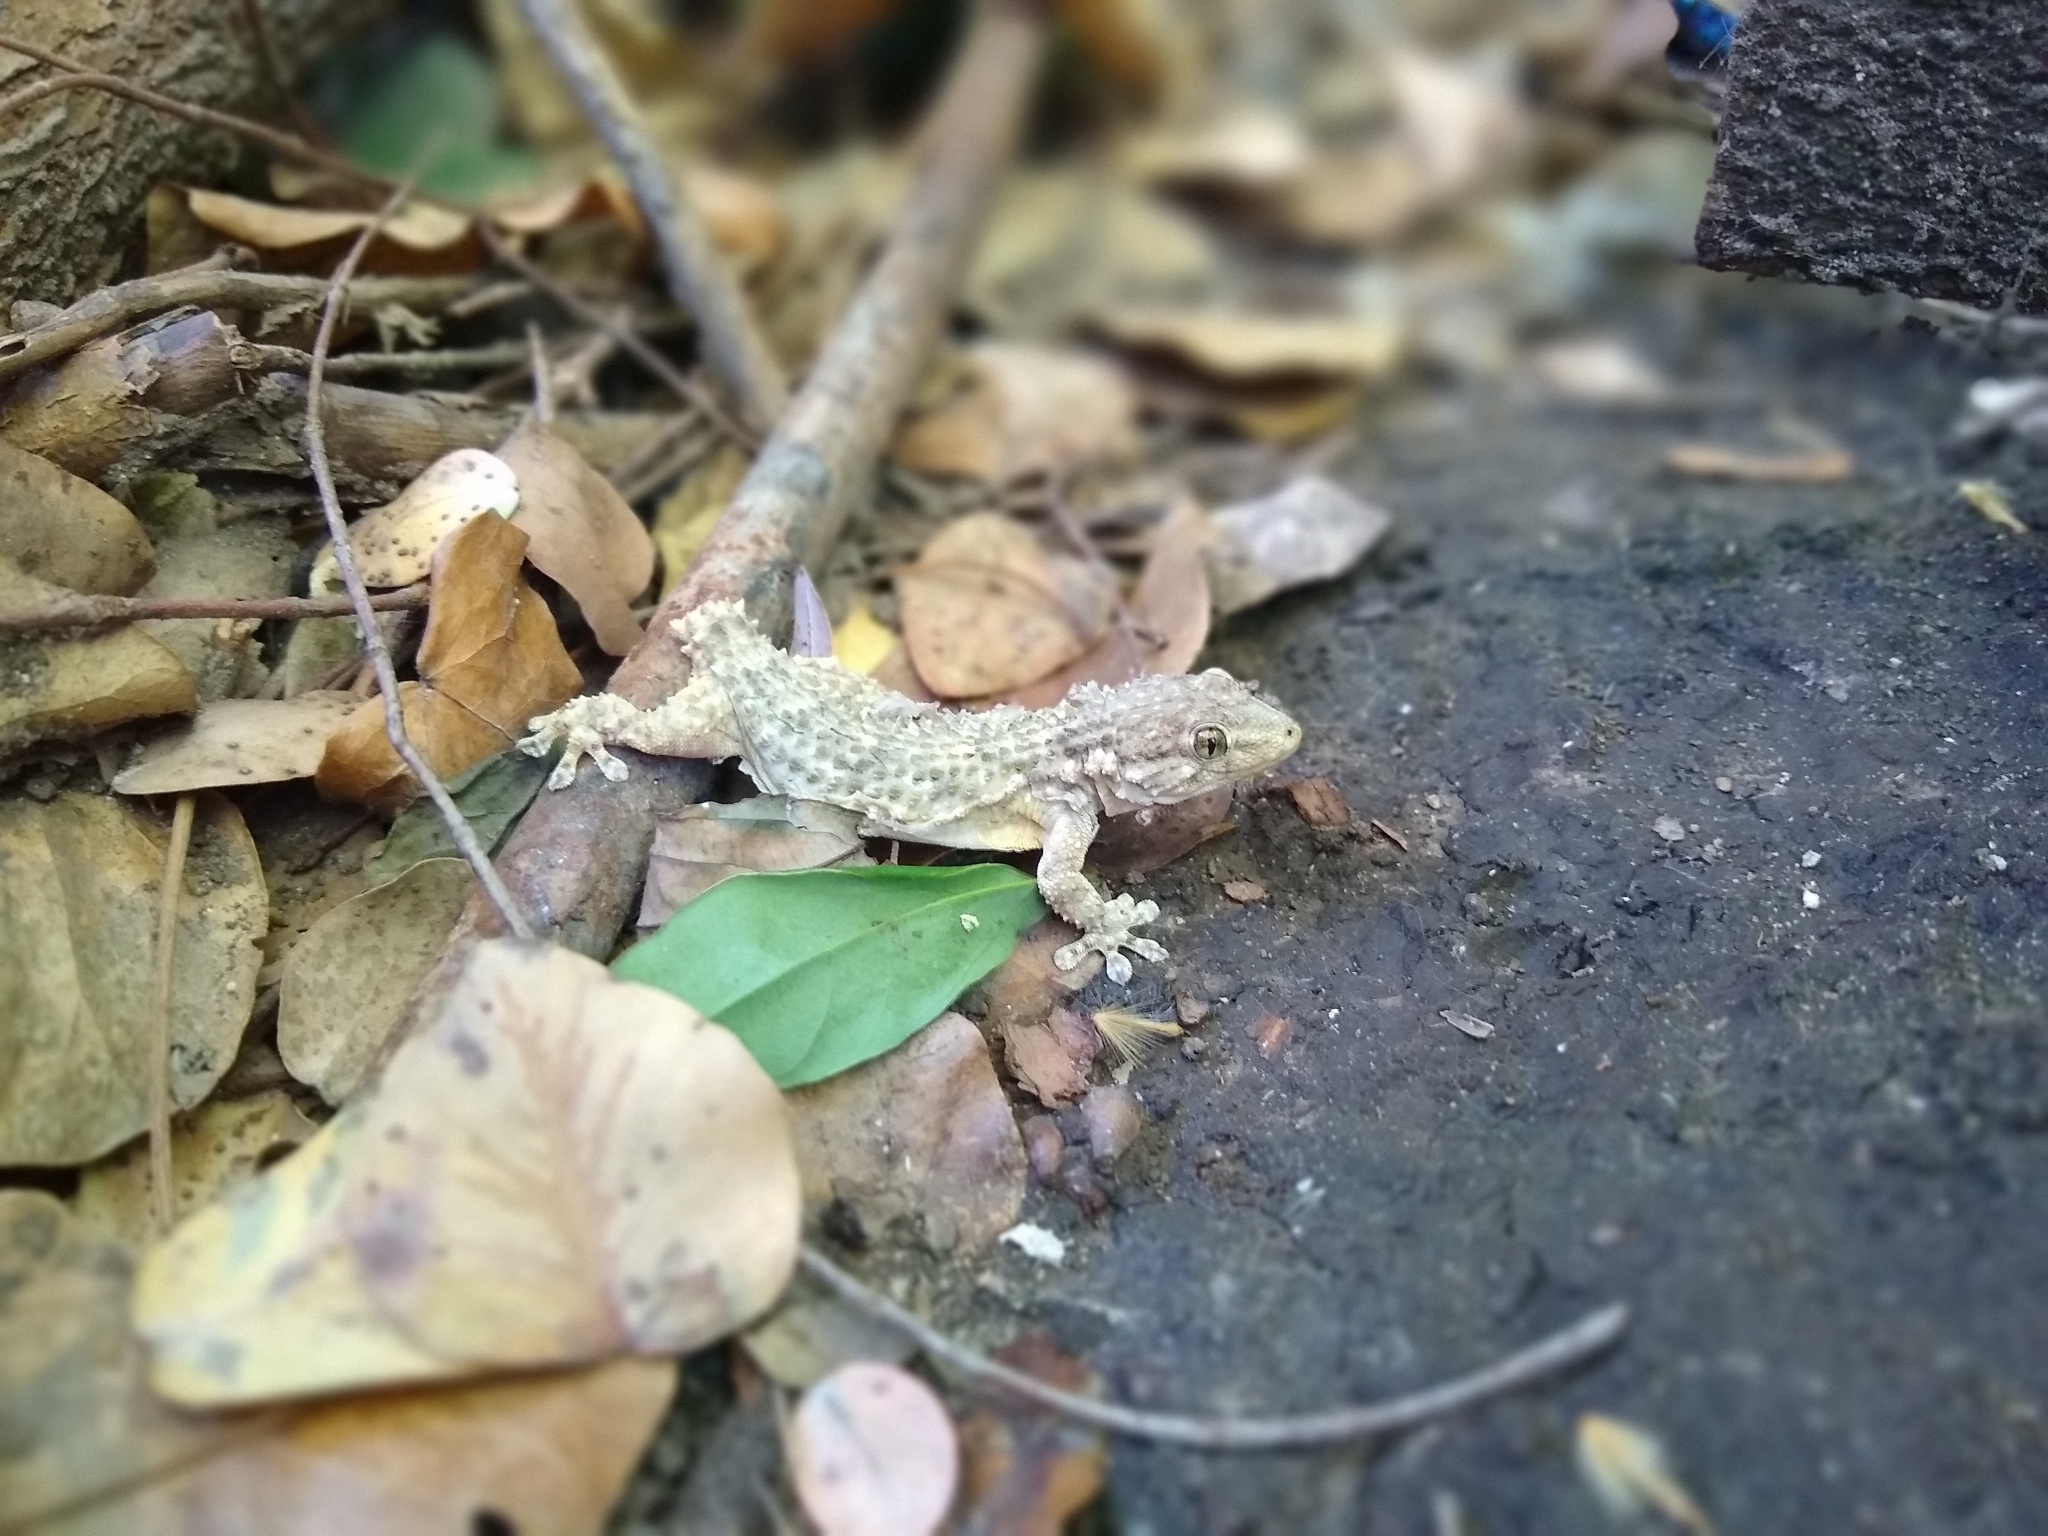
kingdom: Animalia
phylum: Chordata
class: Squamata
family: Phyllodactylidae
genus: Tarentola
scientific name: Tarentola mauritanica
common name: Moorish gecko
